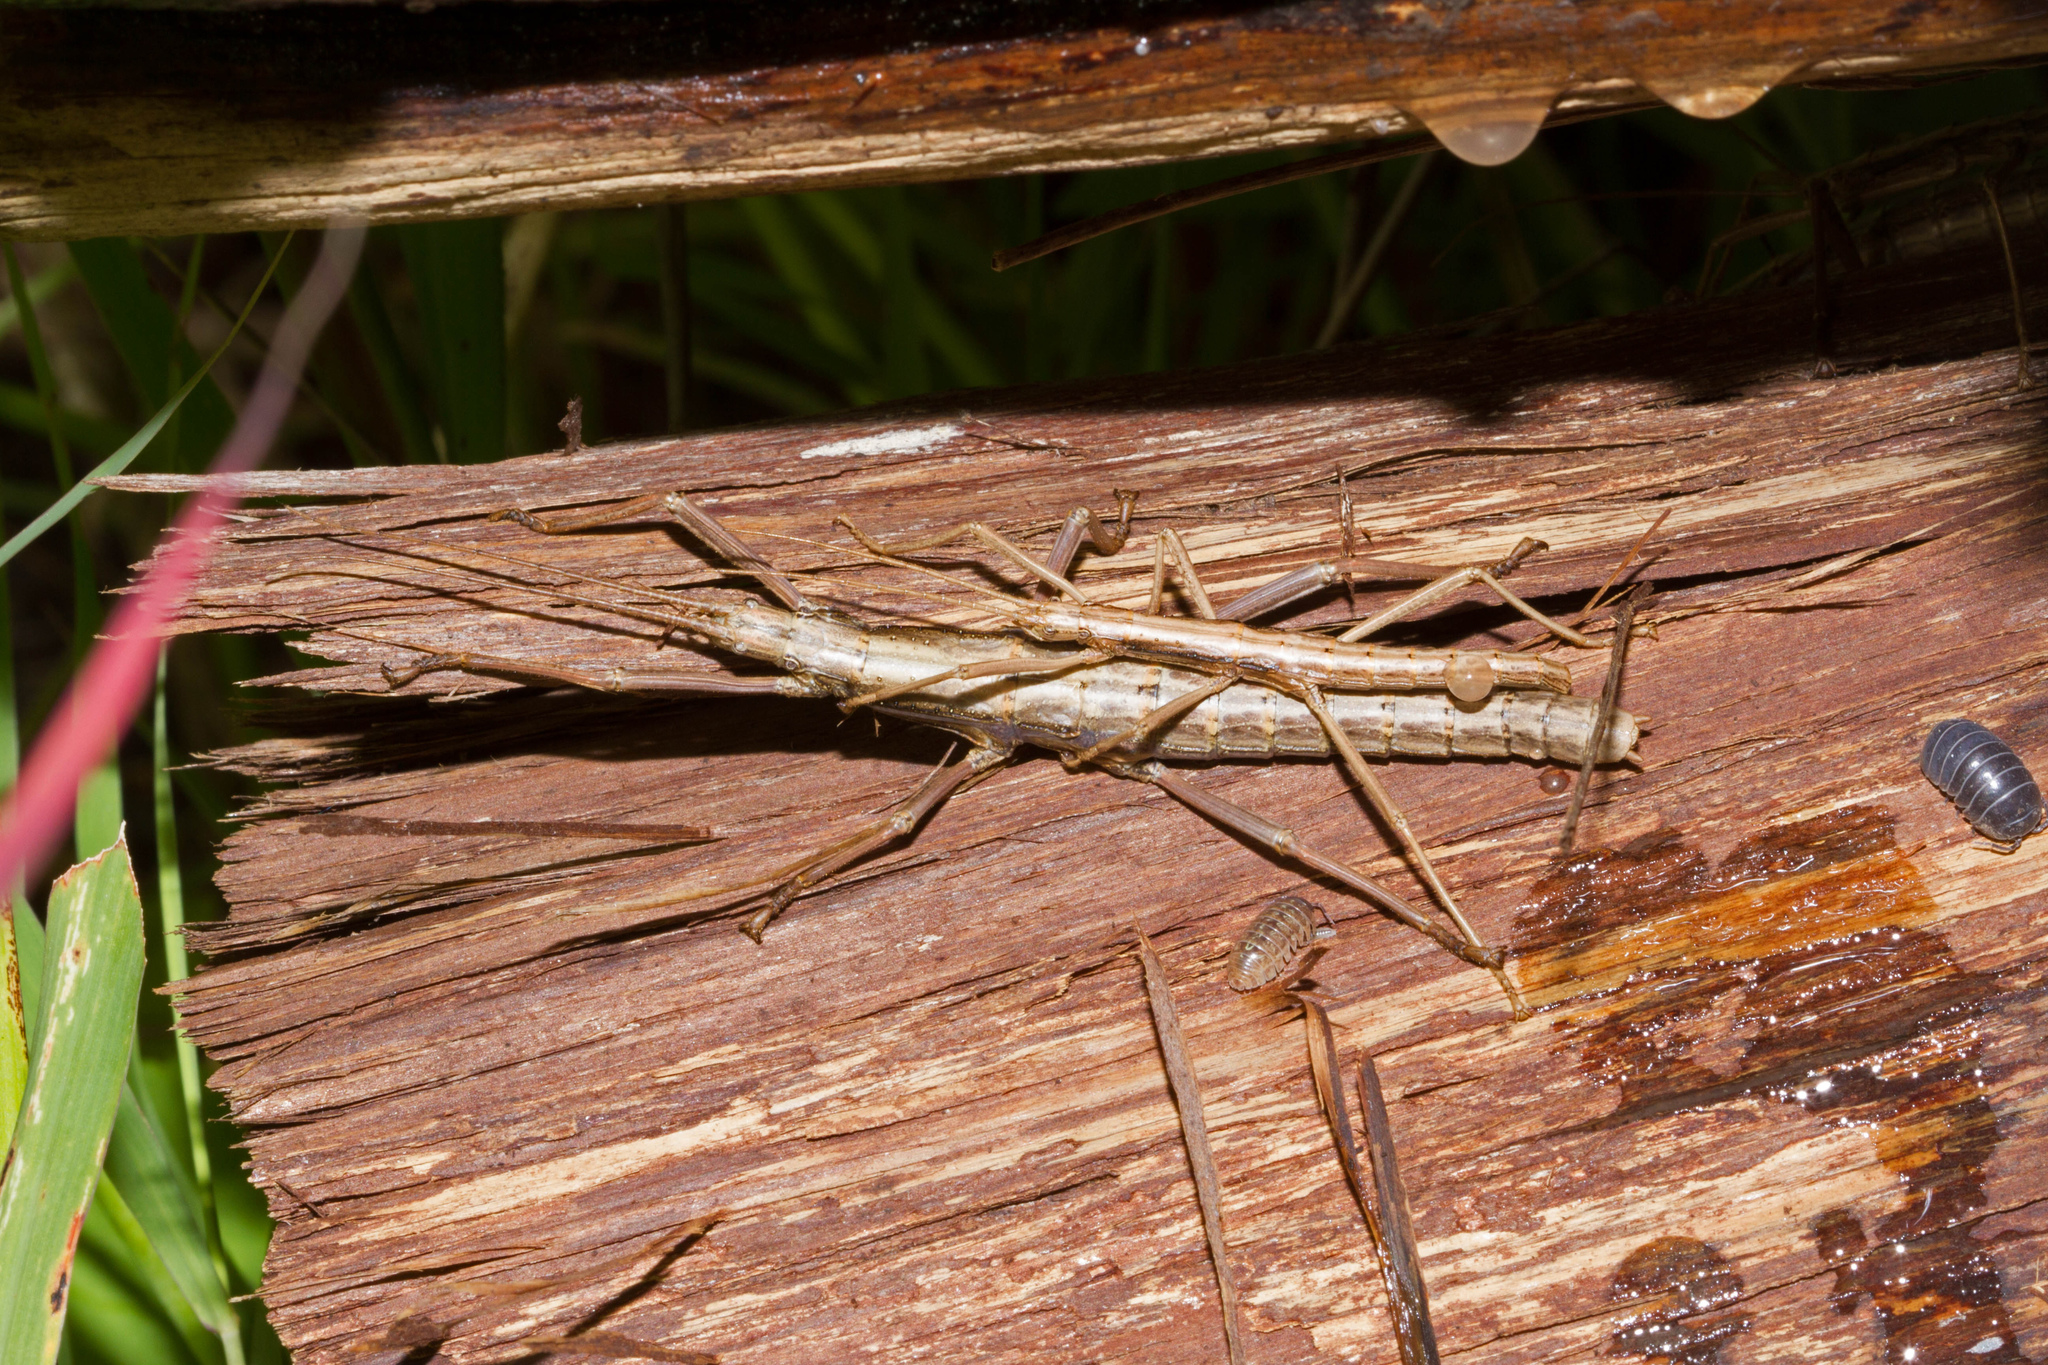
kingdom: Animalia
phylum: Arthropoda
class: Insecta
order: Phasmida
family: Pseudophasmatidae
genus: Anisomorpha
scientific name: Anisomorpha ferruginea
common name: Dark walkingstick
